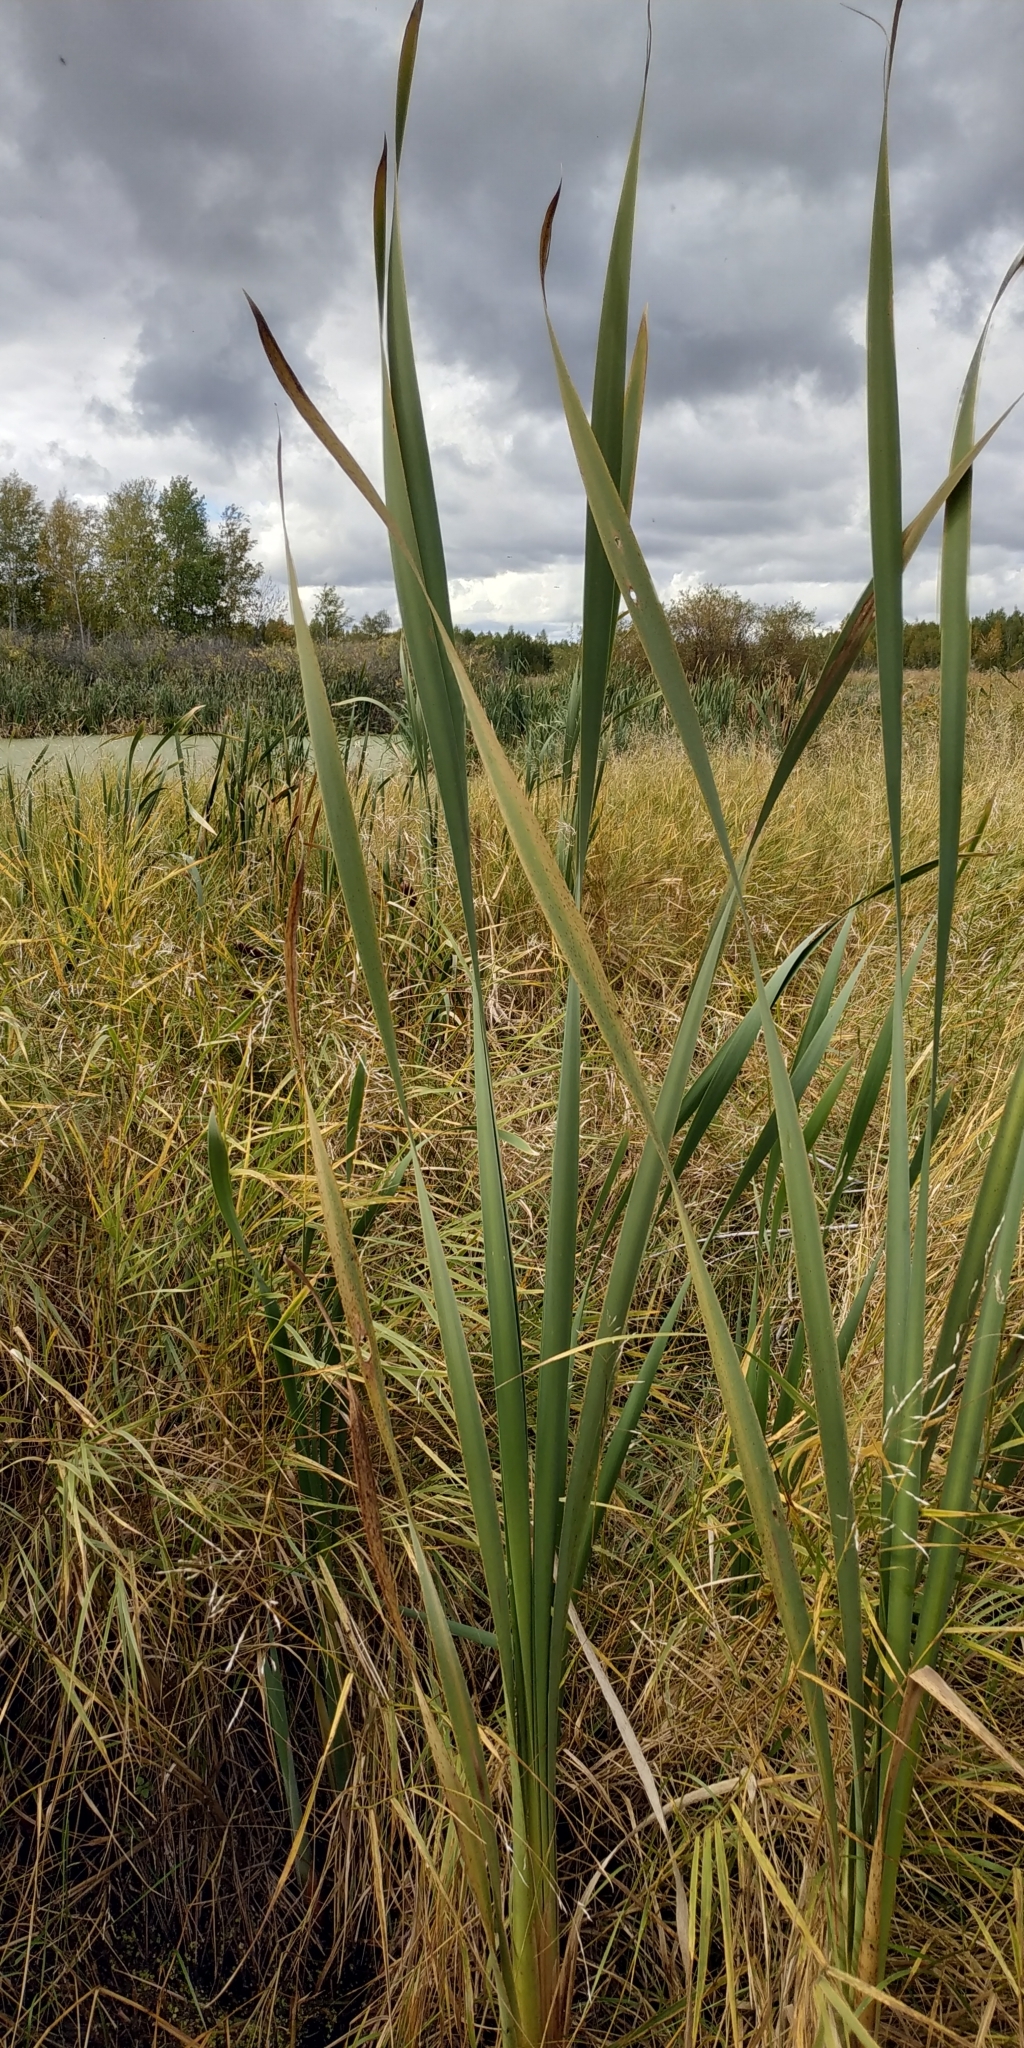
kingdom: Plantae
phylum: Tracheophyta
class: Liliopsida
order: Poales
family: Typhaceae
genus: Typha
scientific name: Typha latifolia
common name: Broadleaf cattail
